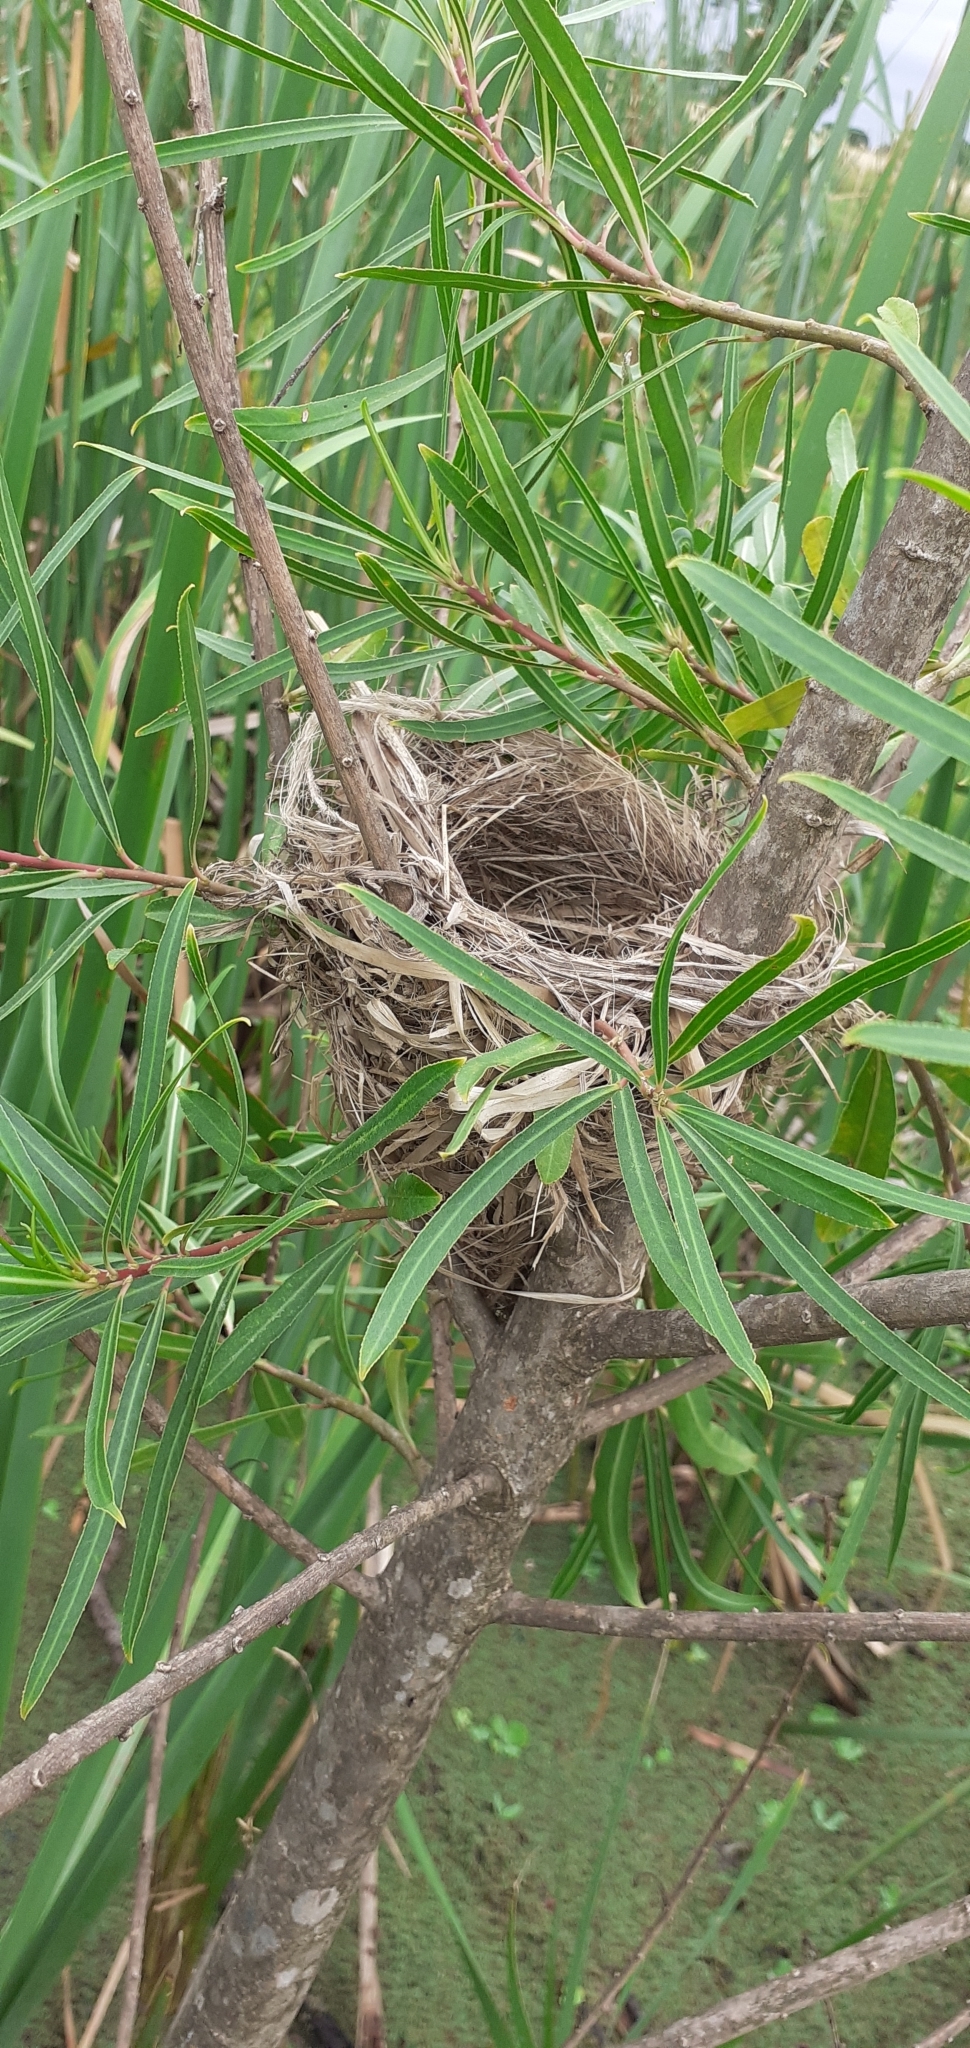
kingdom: Animalia
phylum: Chordata
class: Aves
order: Passeriformes
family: Icteridae
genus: Chrysomus
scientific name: Chrysomus ruficapillus
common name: Chestnut-capped blackbird
